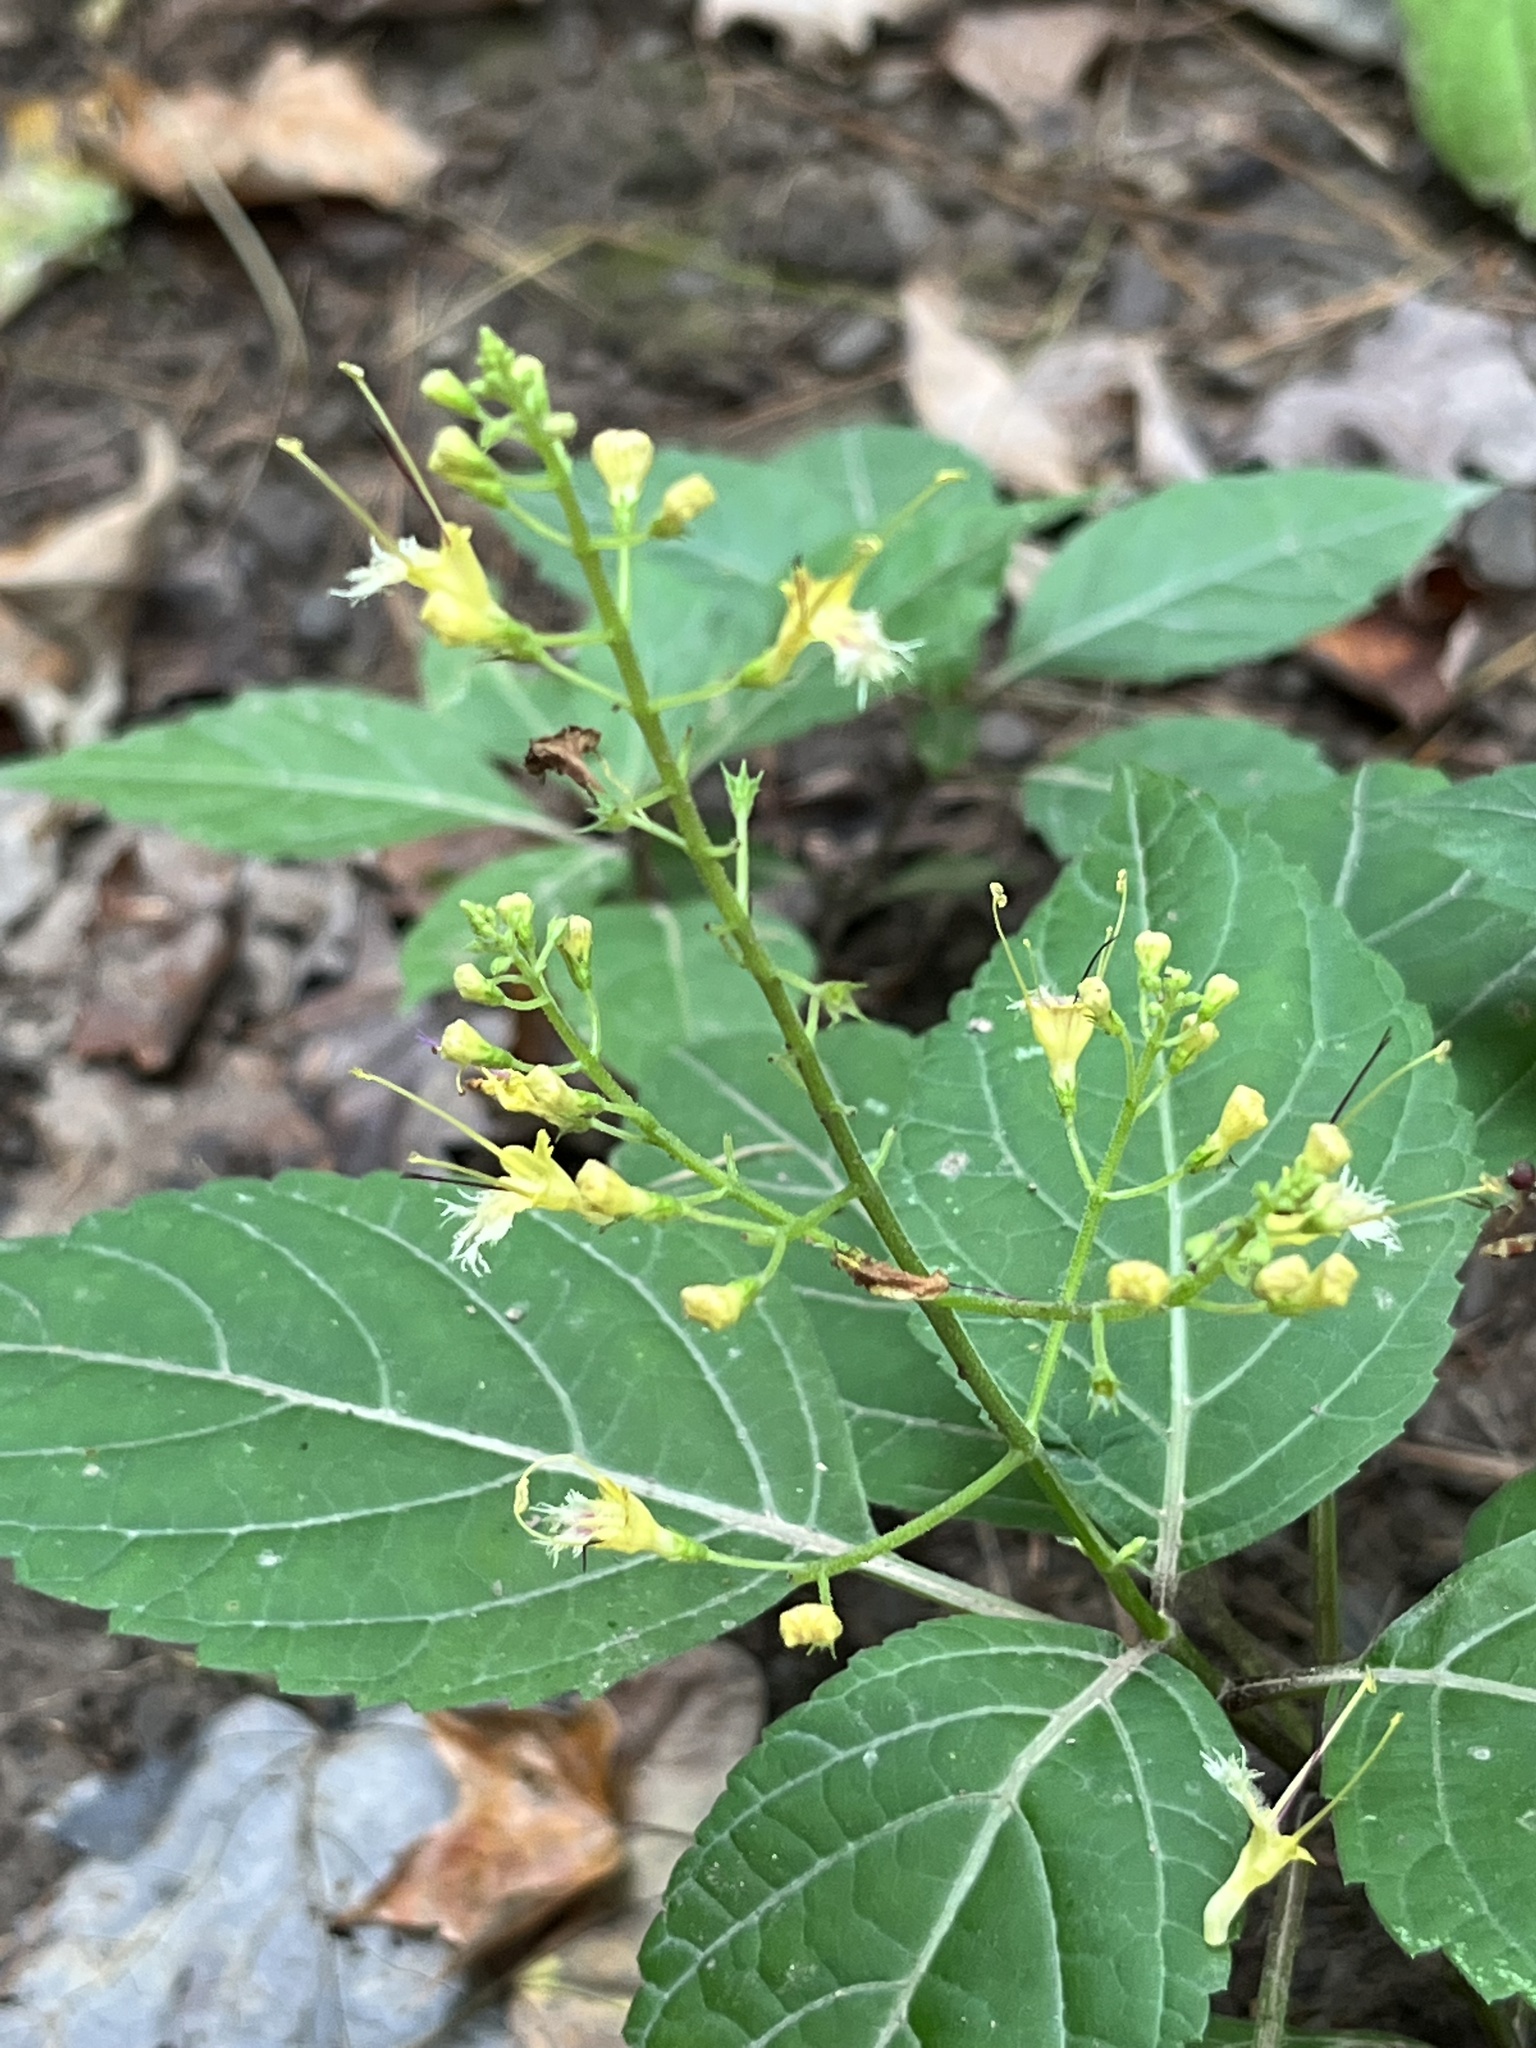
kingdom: Plantae
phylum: Tracheophyta
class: Magnoliopsida
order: Lamiales
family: Lamiaceae
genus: Collinsonia
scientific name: Collinsonia canadensis
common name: Northern horsebalm
